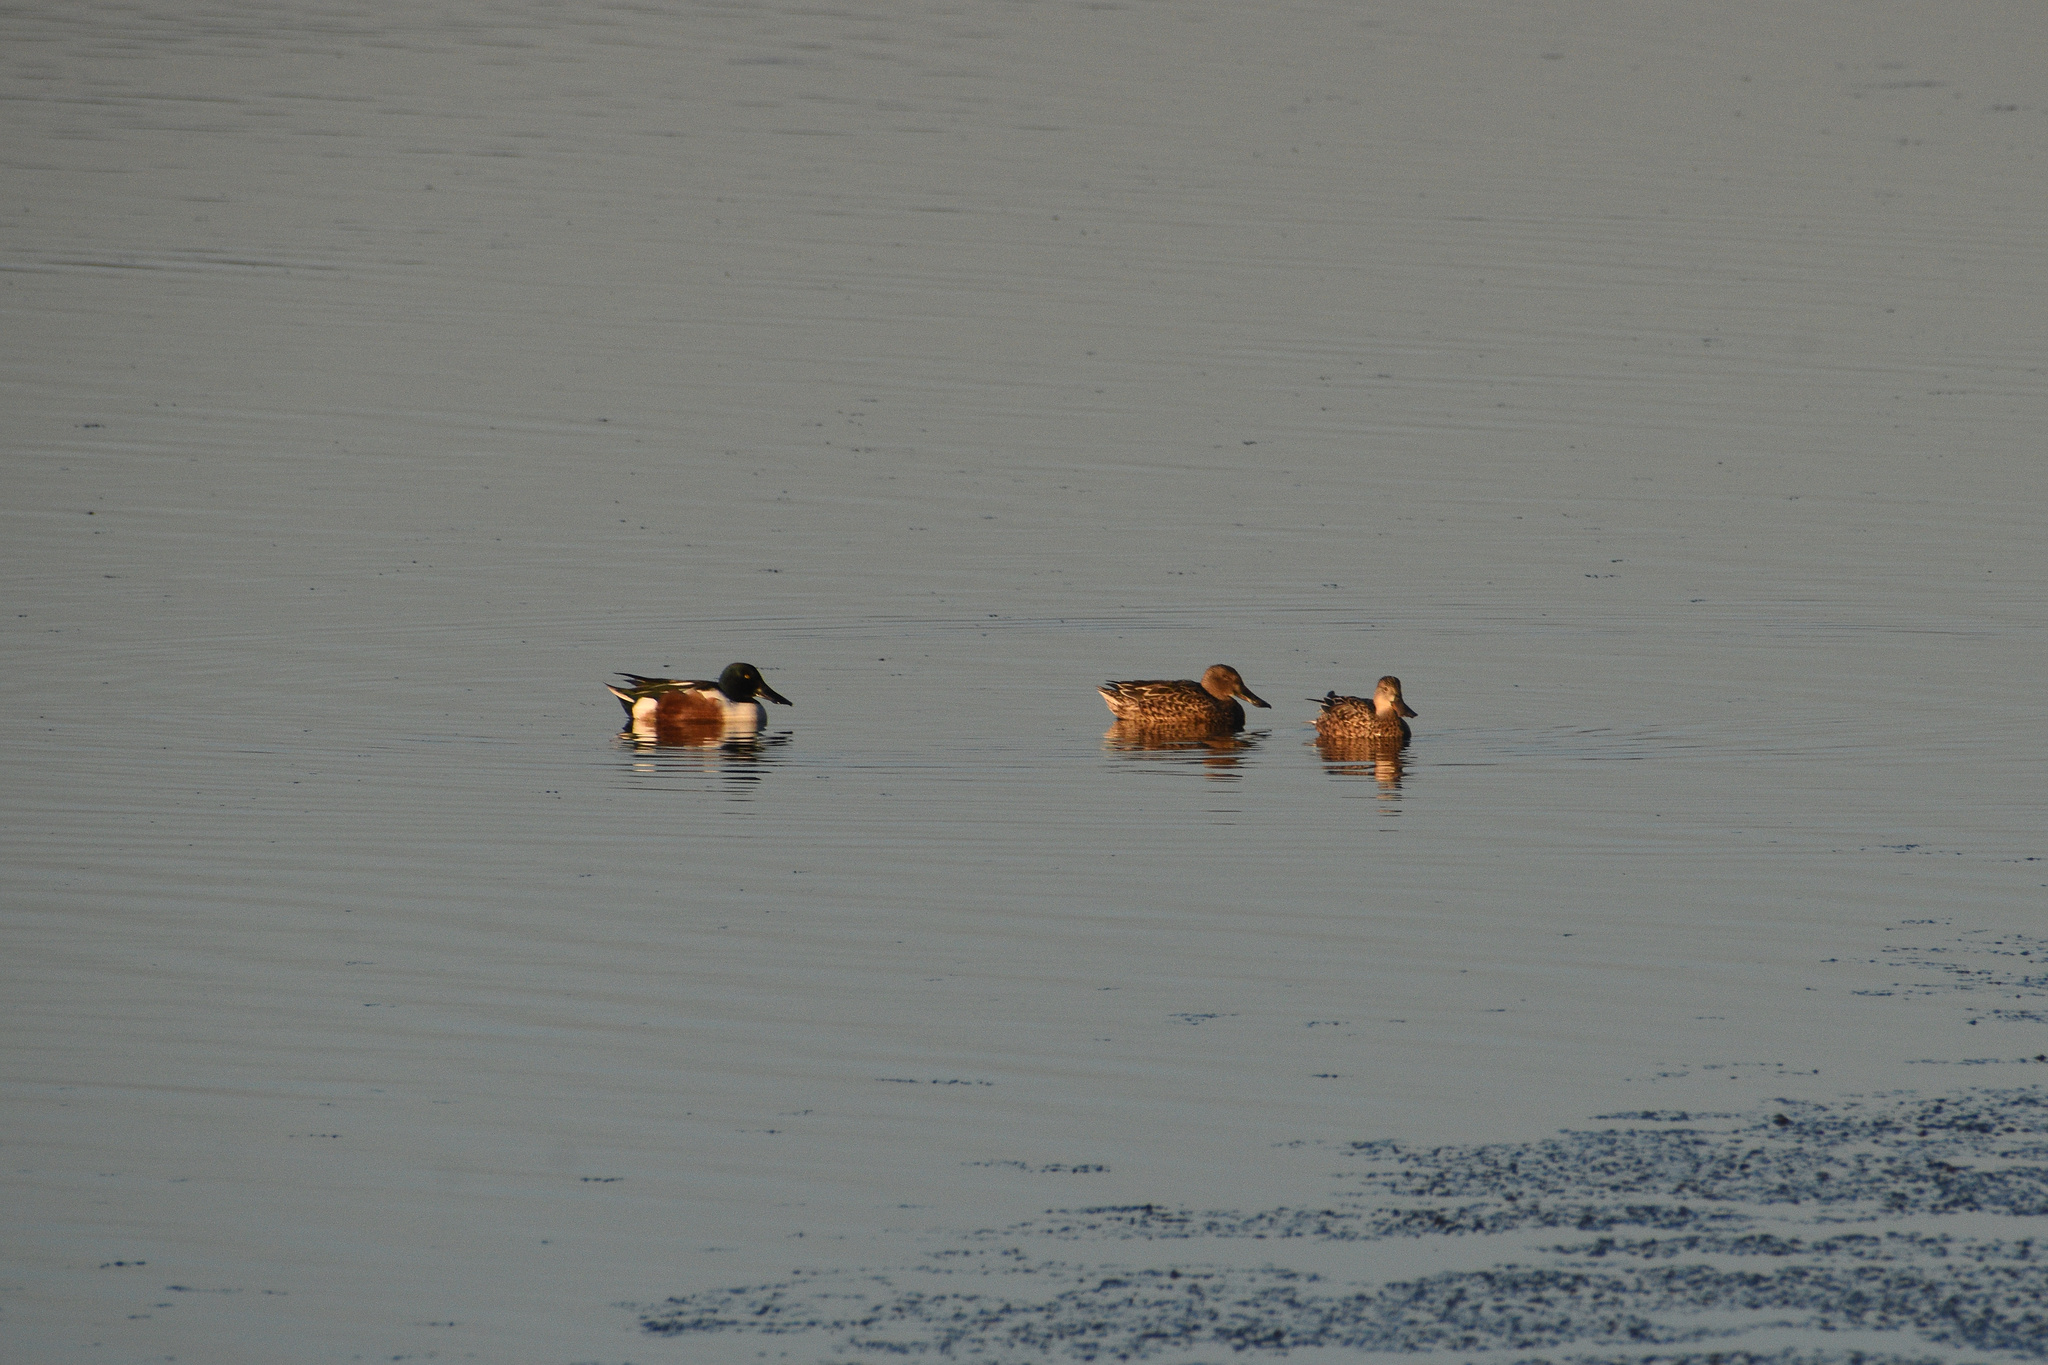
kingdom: Animalia
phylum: Chordata
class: Aves
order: Anseriformes
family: Anatidae
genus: Spatula
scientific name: Spatula clypeata
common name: Northern shoveler
